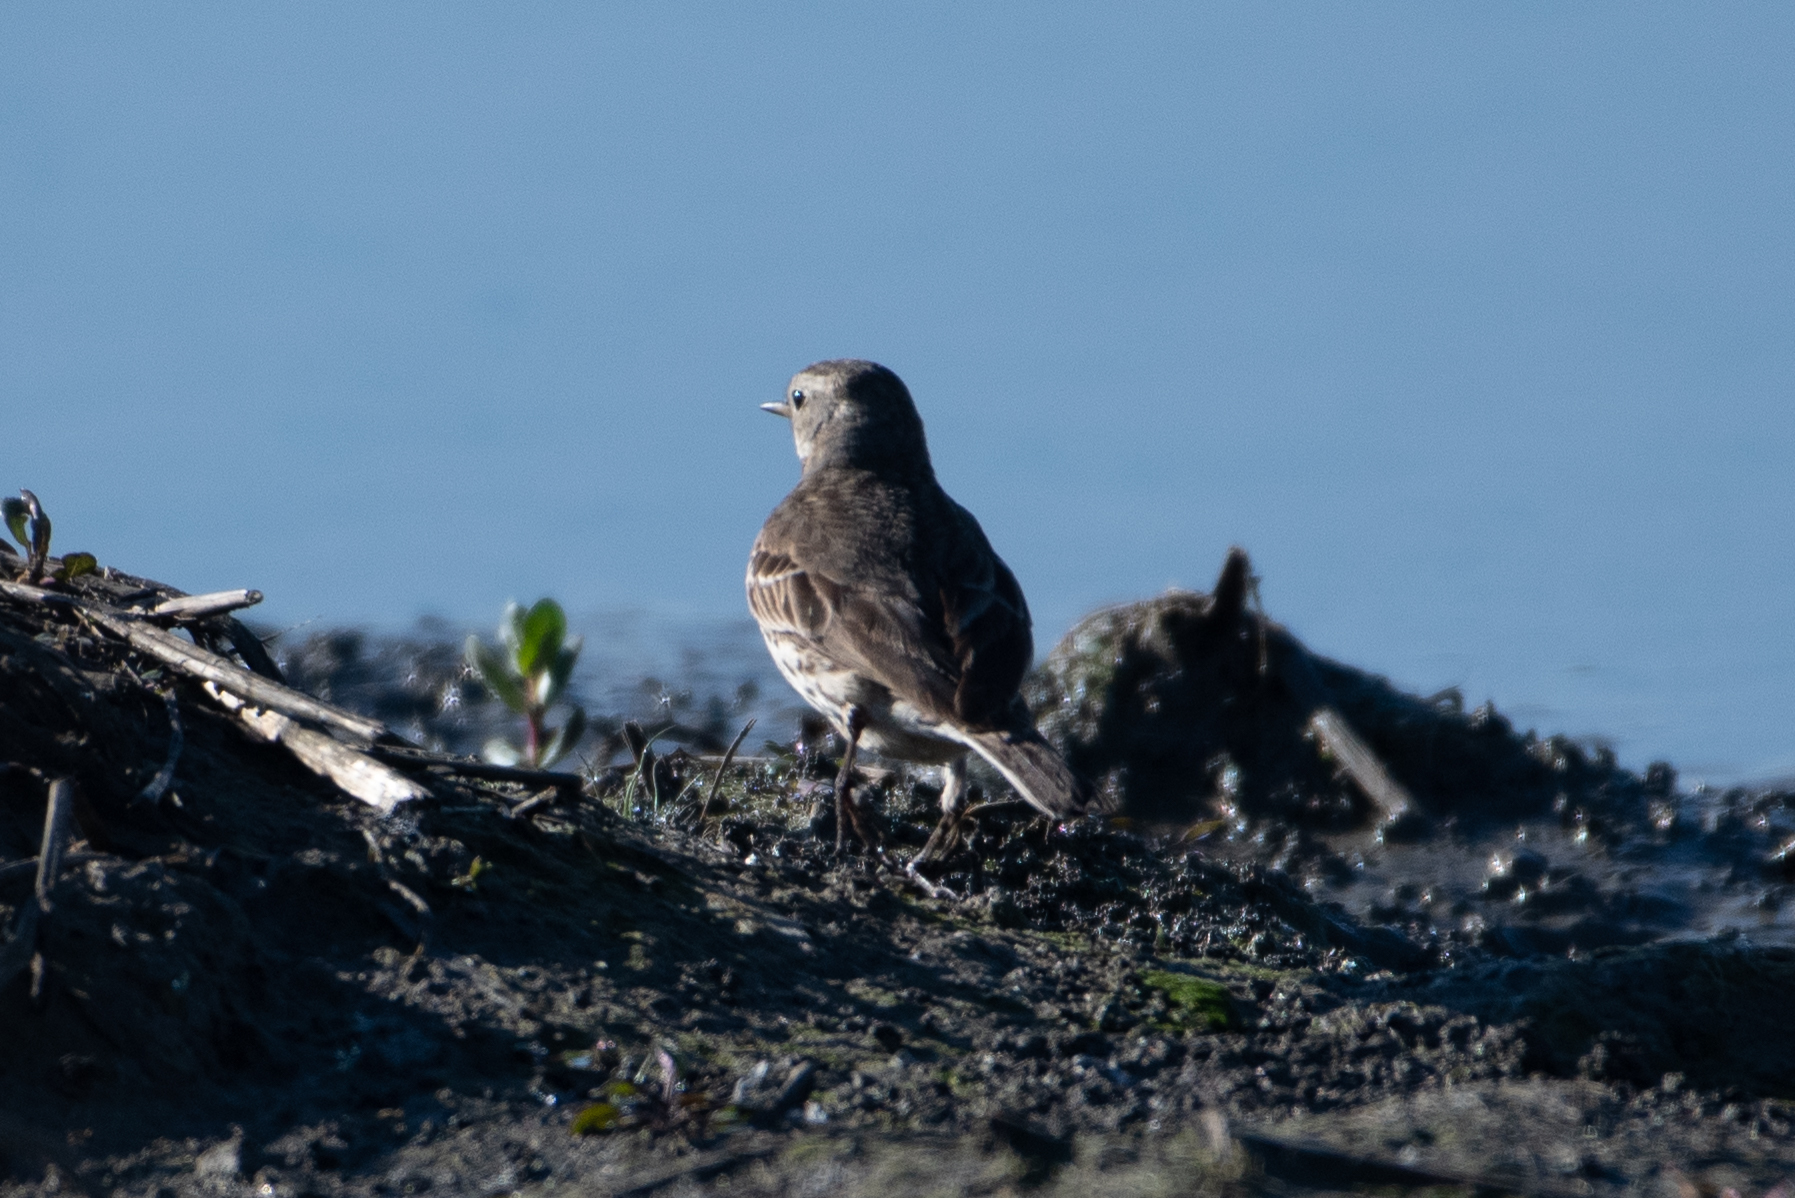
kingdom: Animalia
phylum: Chordata
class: Aves
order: Passeriformes
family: Motacillidae
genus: Anthus
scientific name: Anthus rubescens
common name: Buff-bellied pipit
